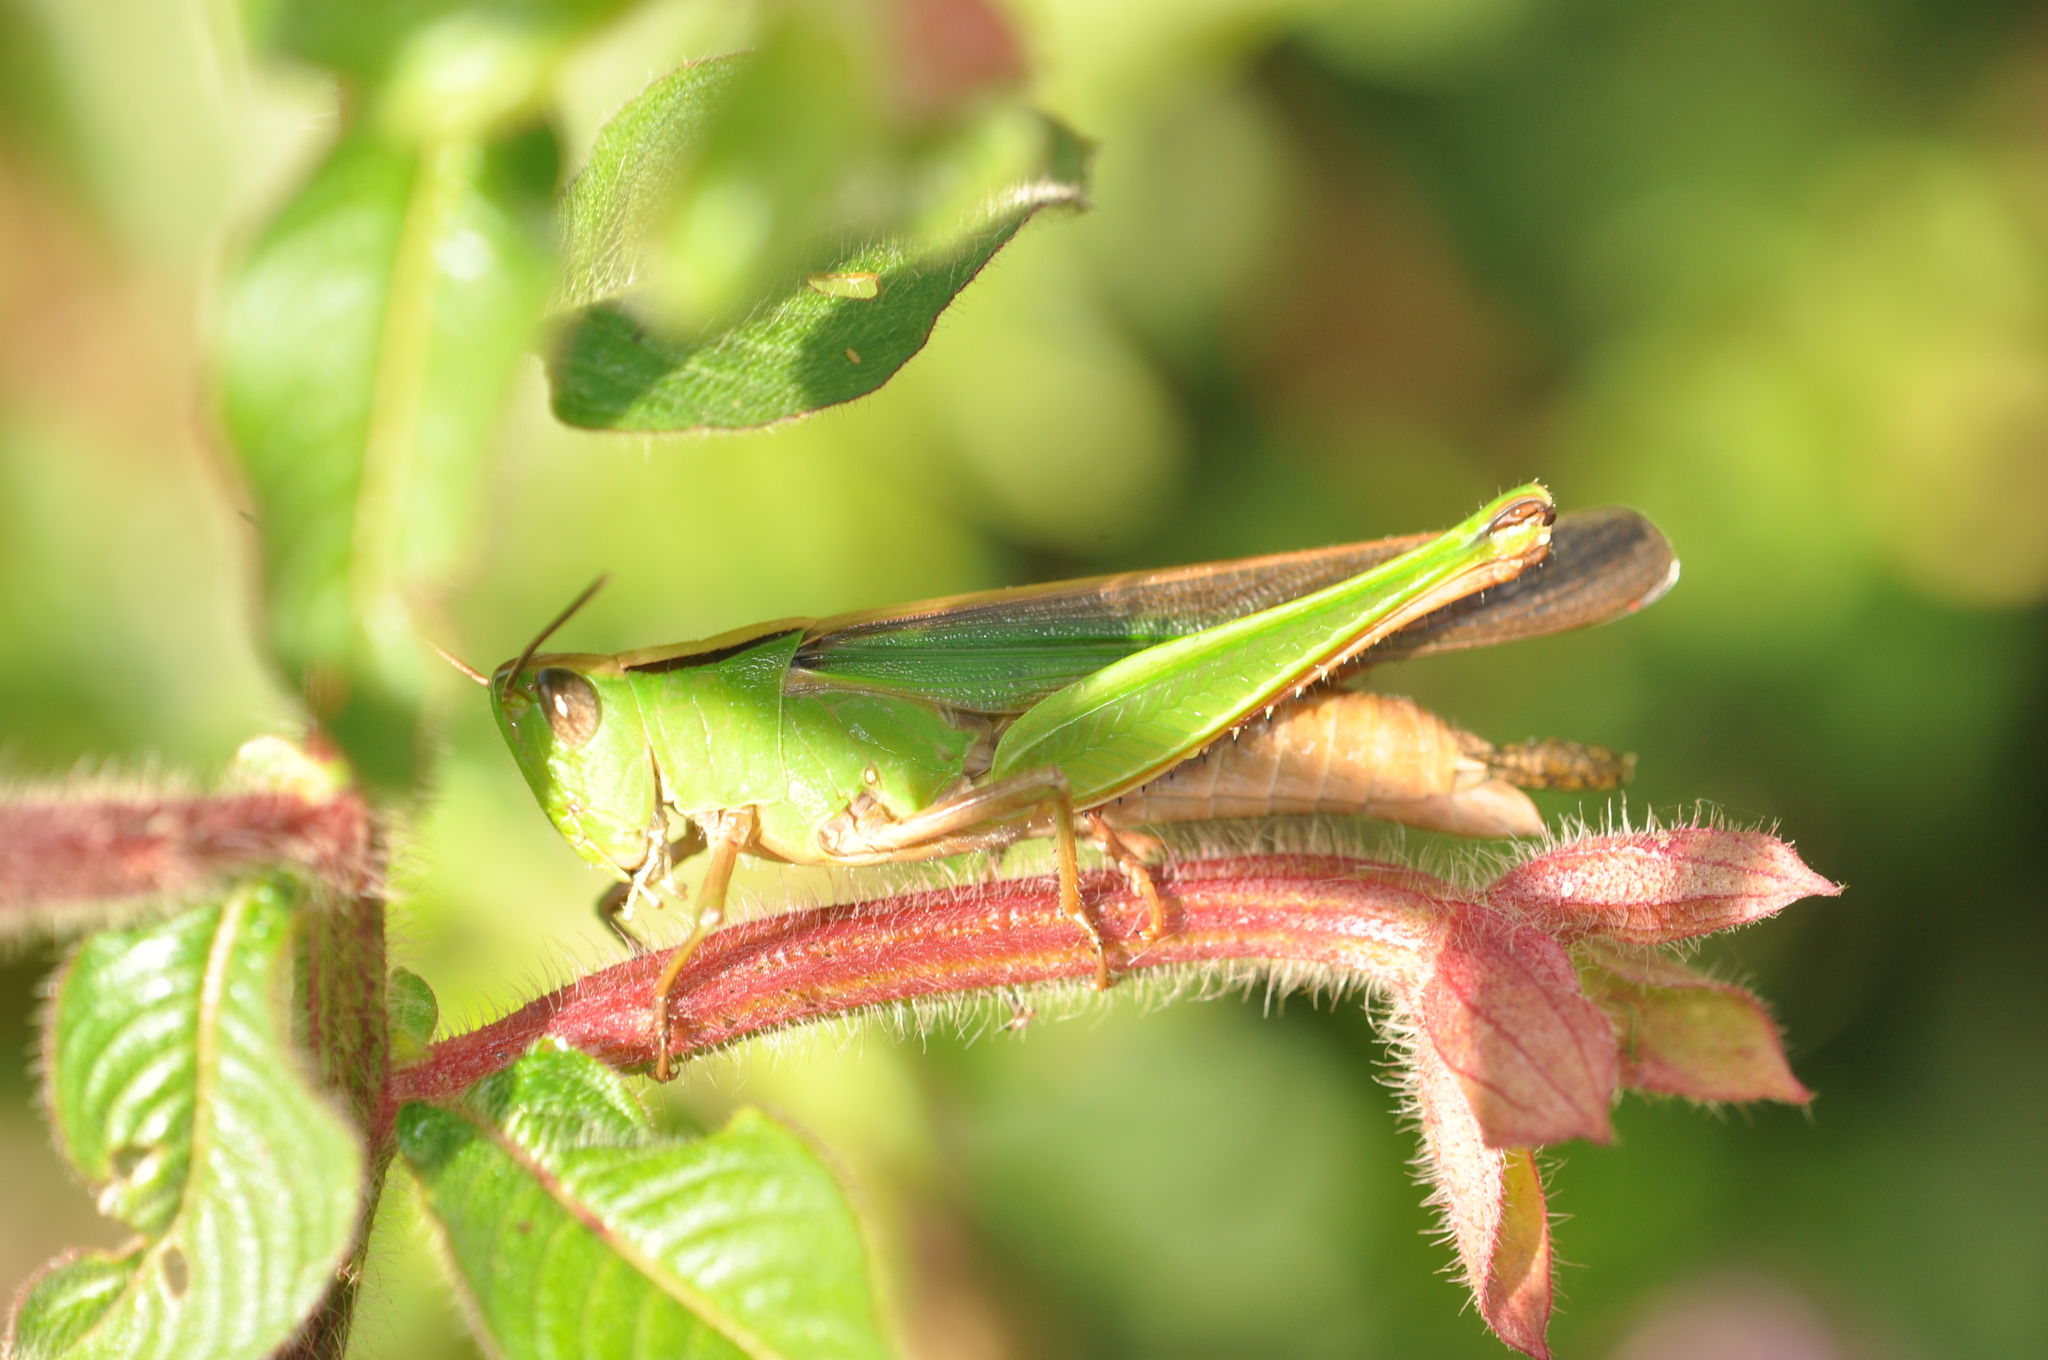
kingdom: Animalia
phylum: Arthropoda
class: Insecta
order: Orthoptera
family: Acrididae
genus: Paracinema
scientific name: Paracinema tricolor
